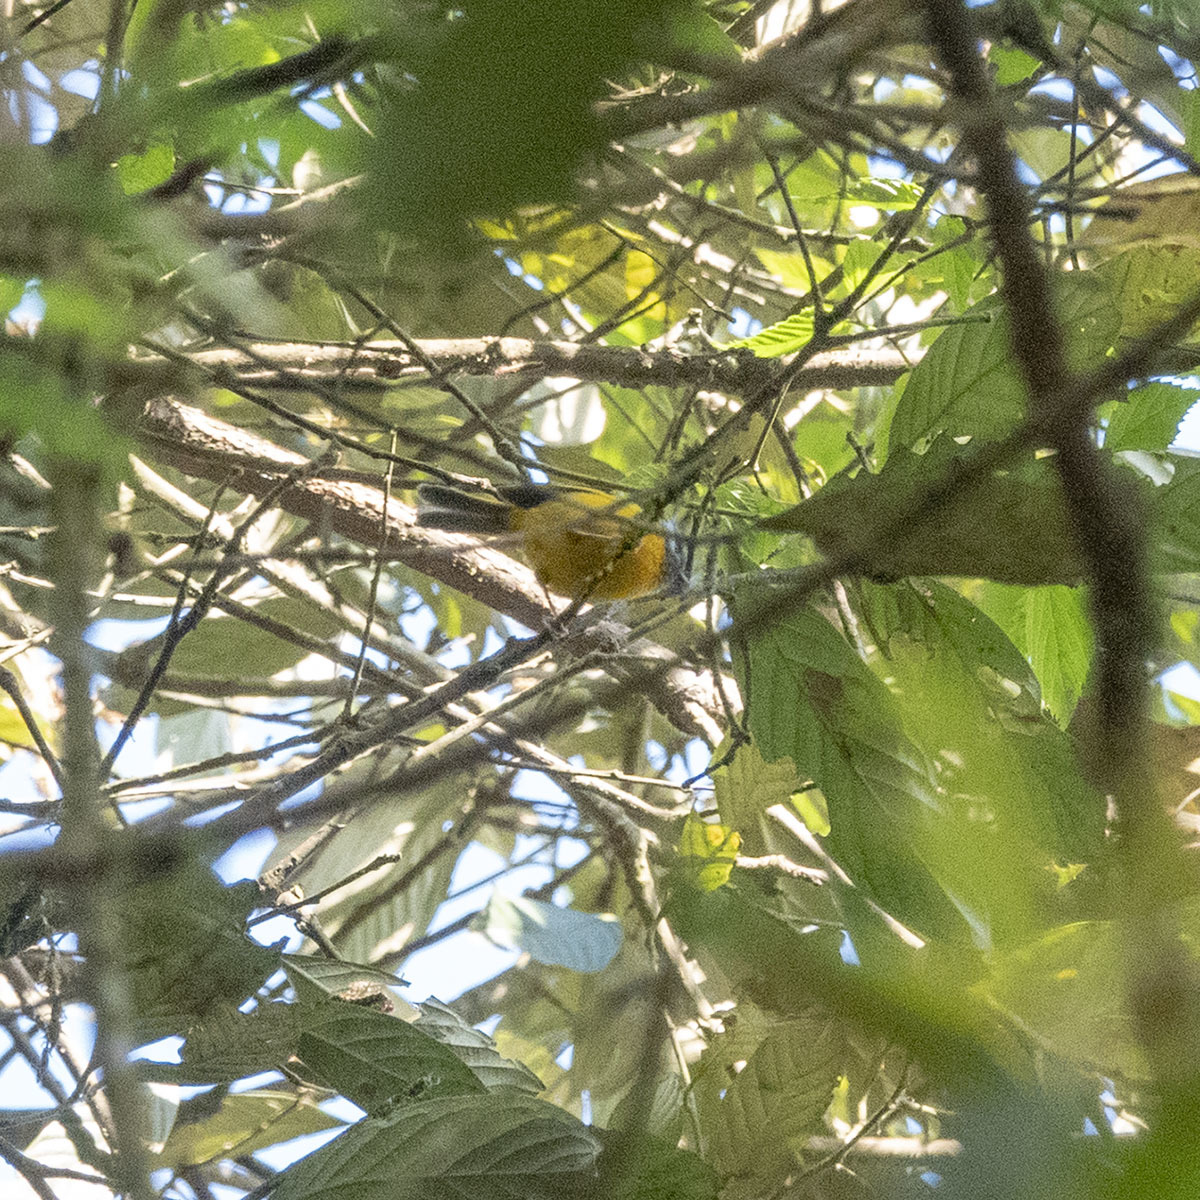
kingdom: Animalia
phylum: Chordata
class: Aves
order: Passeriformes
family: Sylviidae
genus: Lioparus
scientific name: Lioparus chrysotis
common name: Golden-breasted fulvetta
